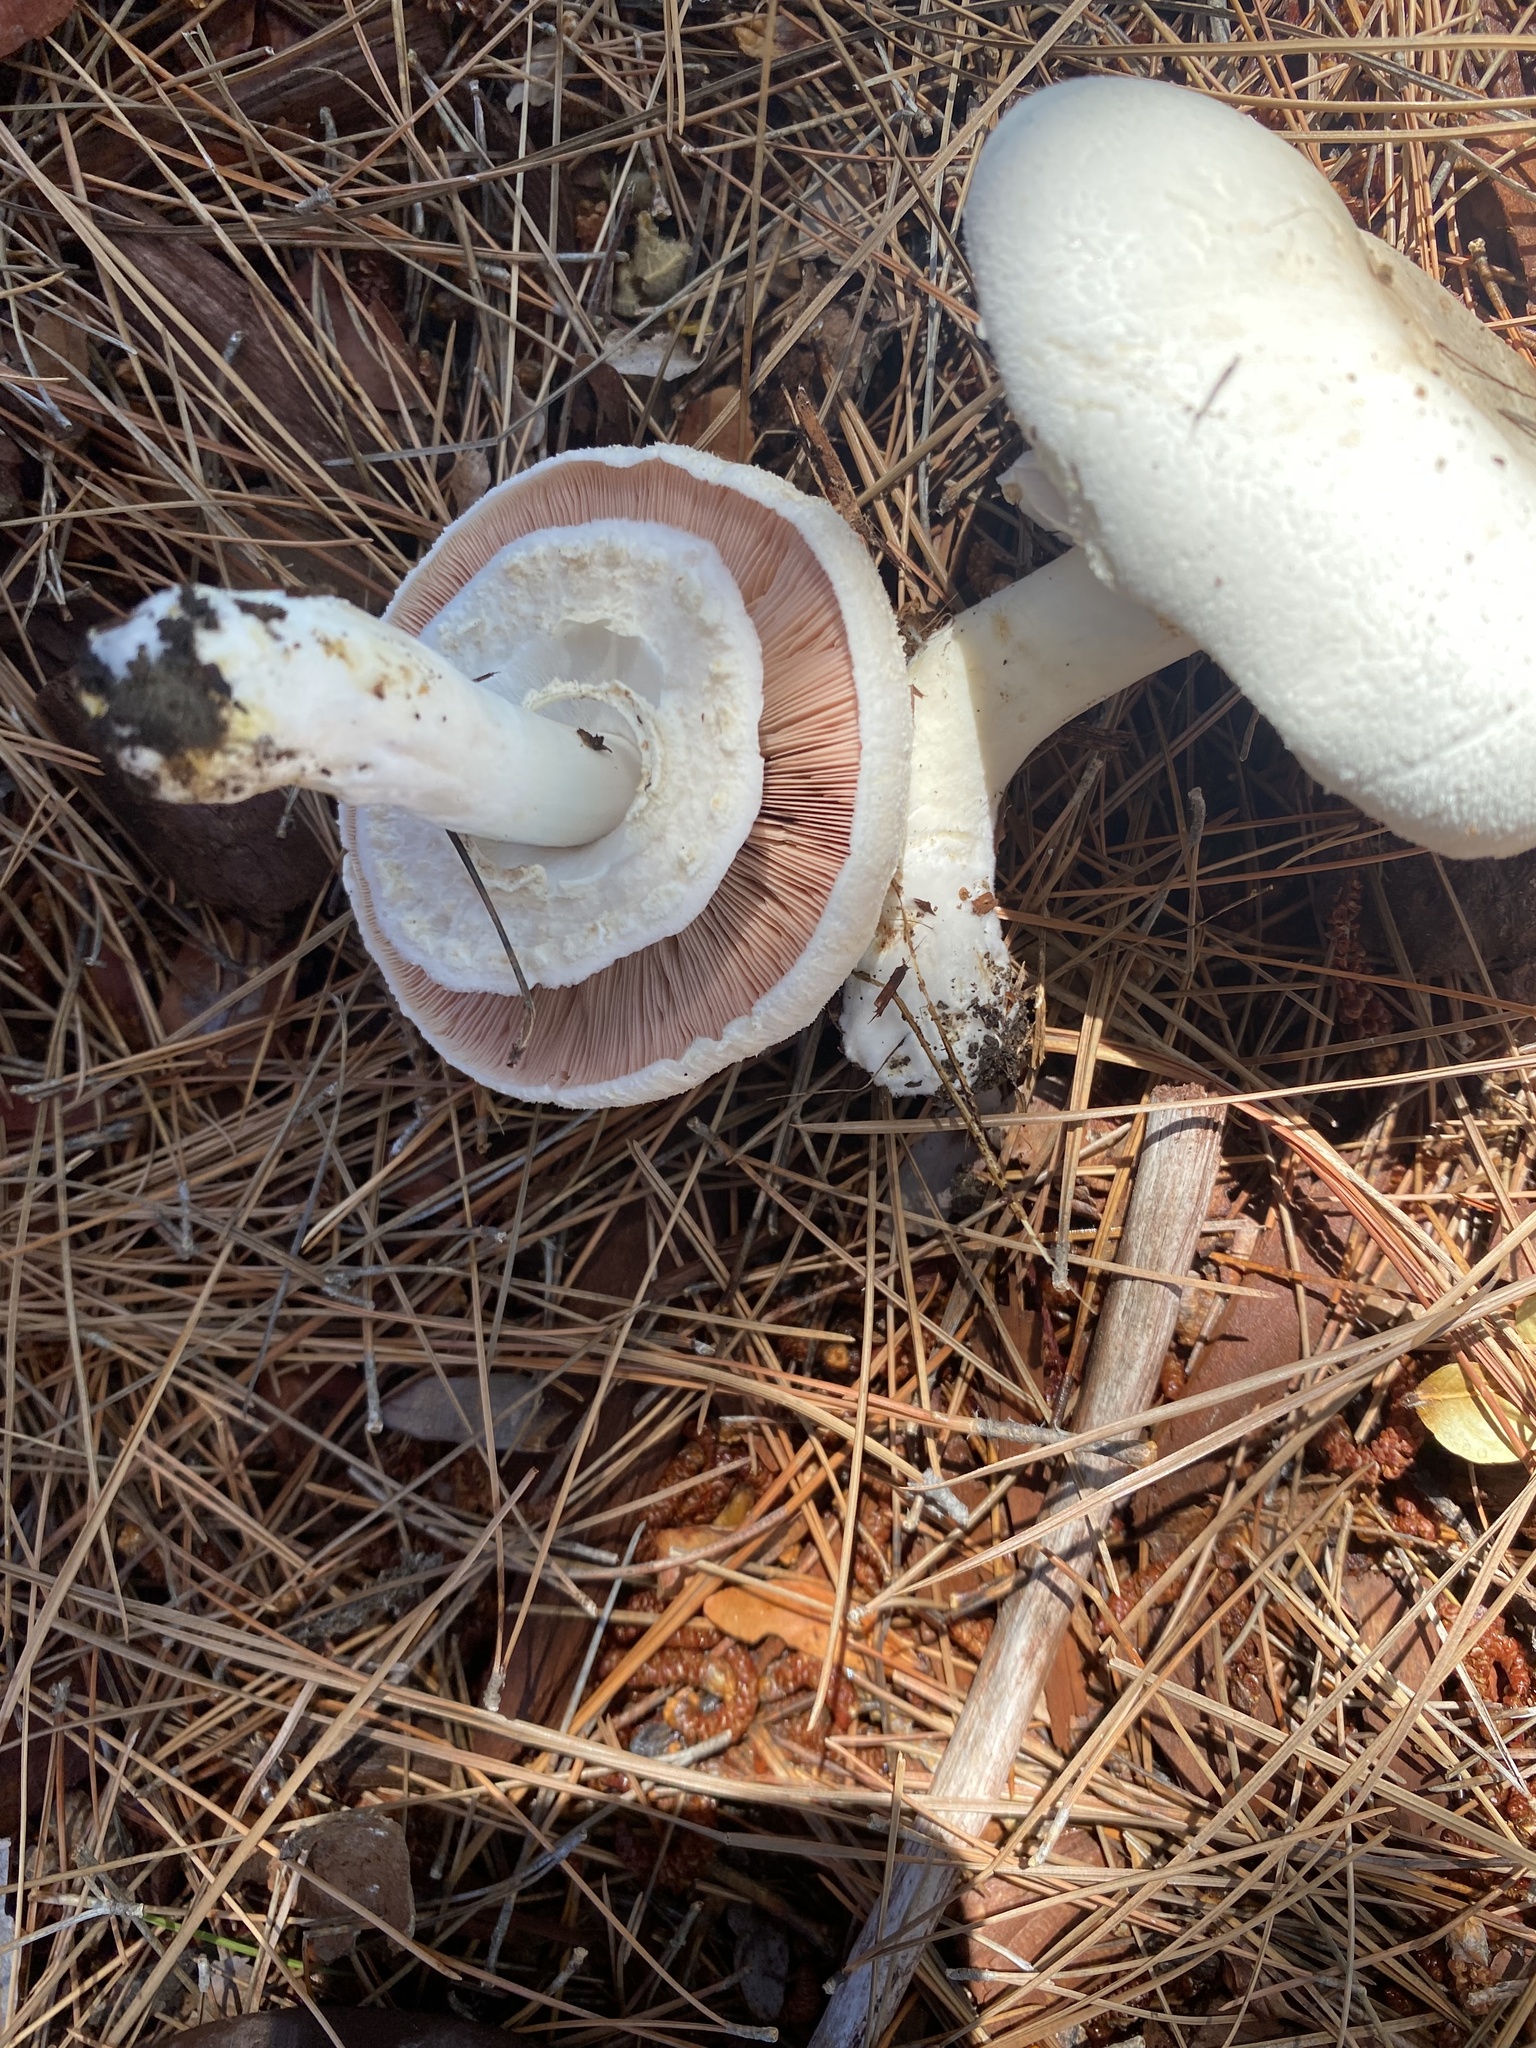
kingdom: Fungi
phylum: Basidiomycota
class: Agaricomycetes
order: Agaricales
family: Agaricaceae
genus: Agaricus
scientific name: Agaricus californicus
